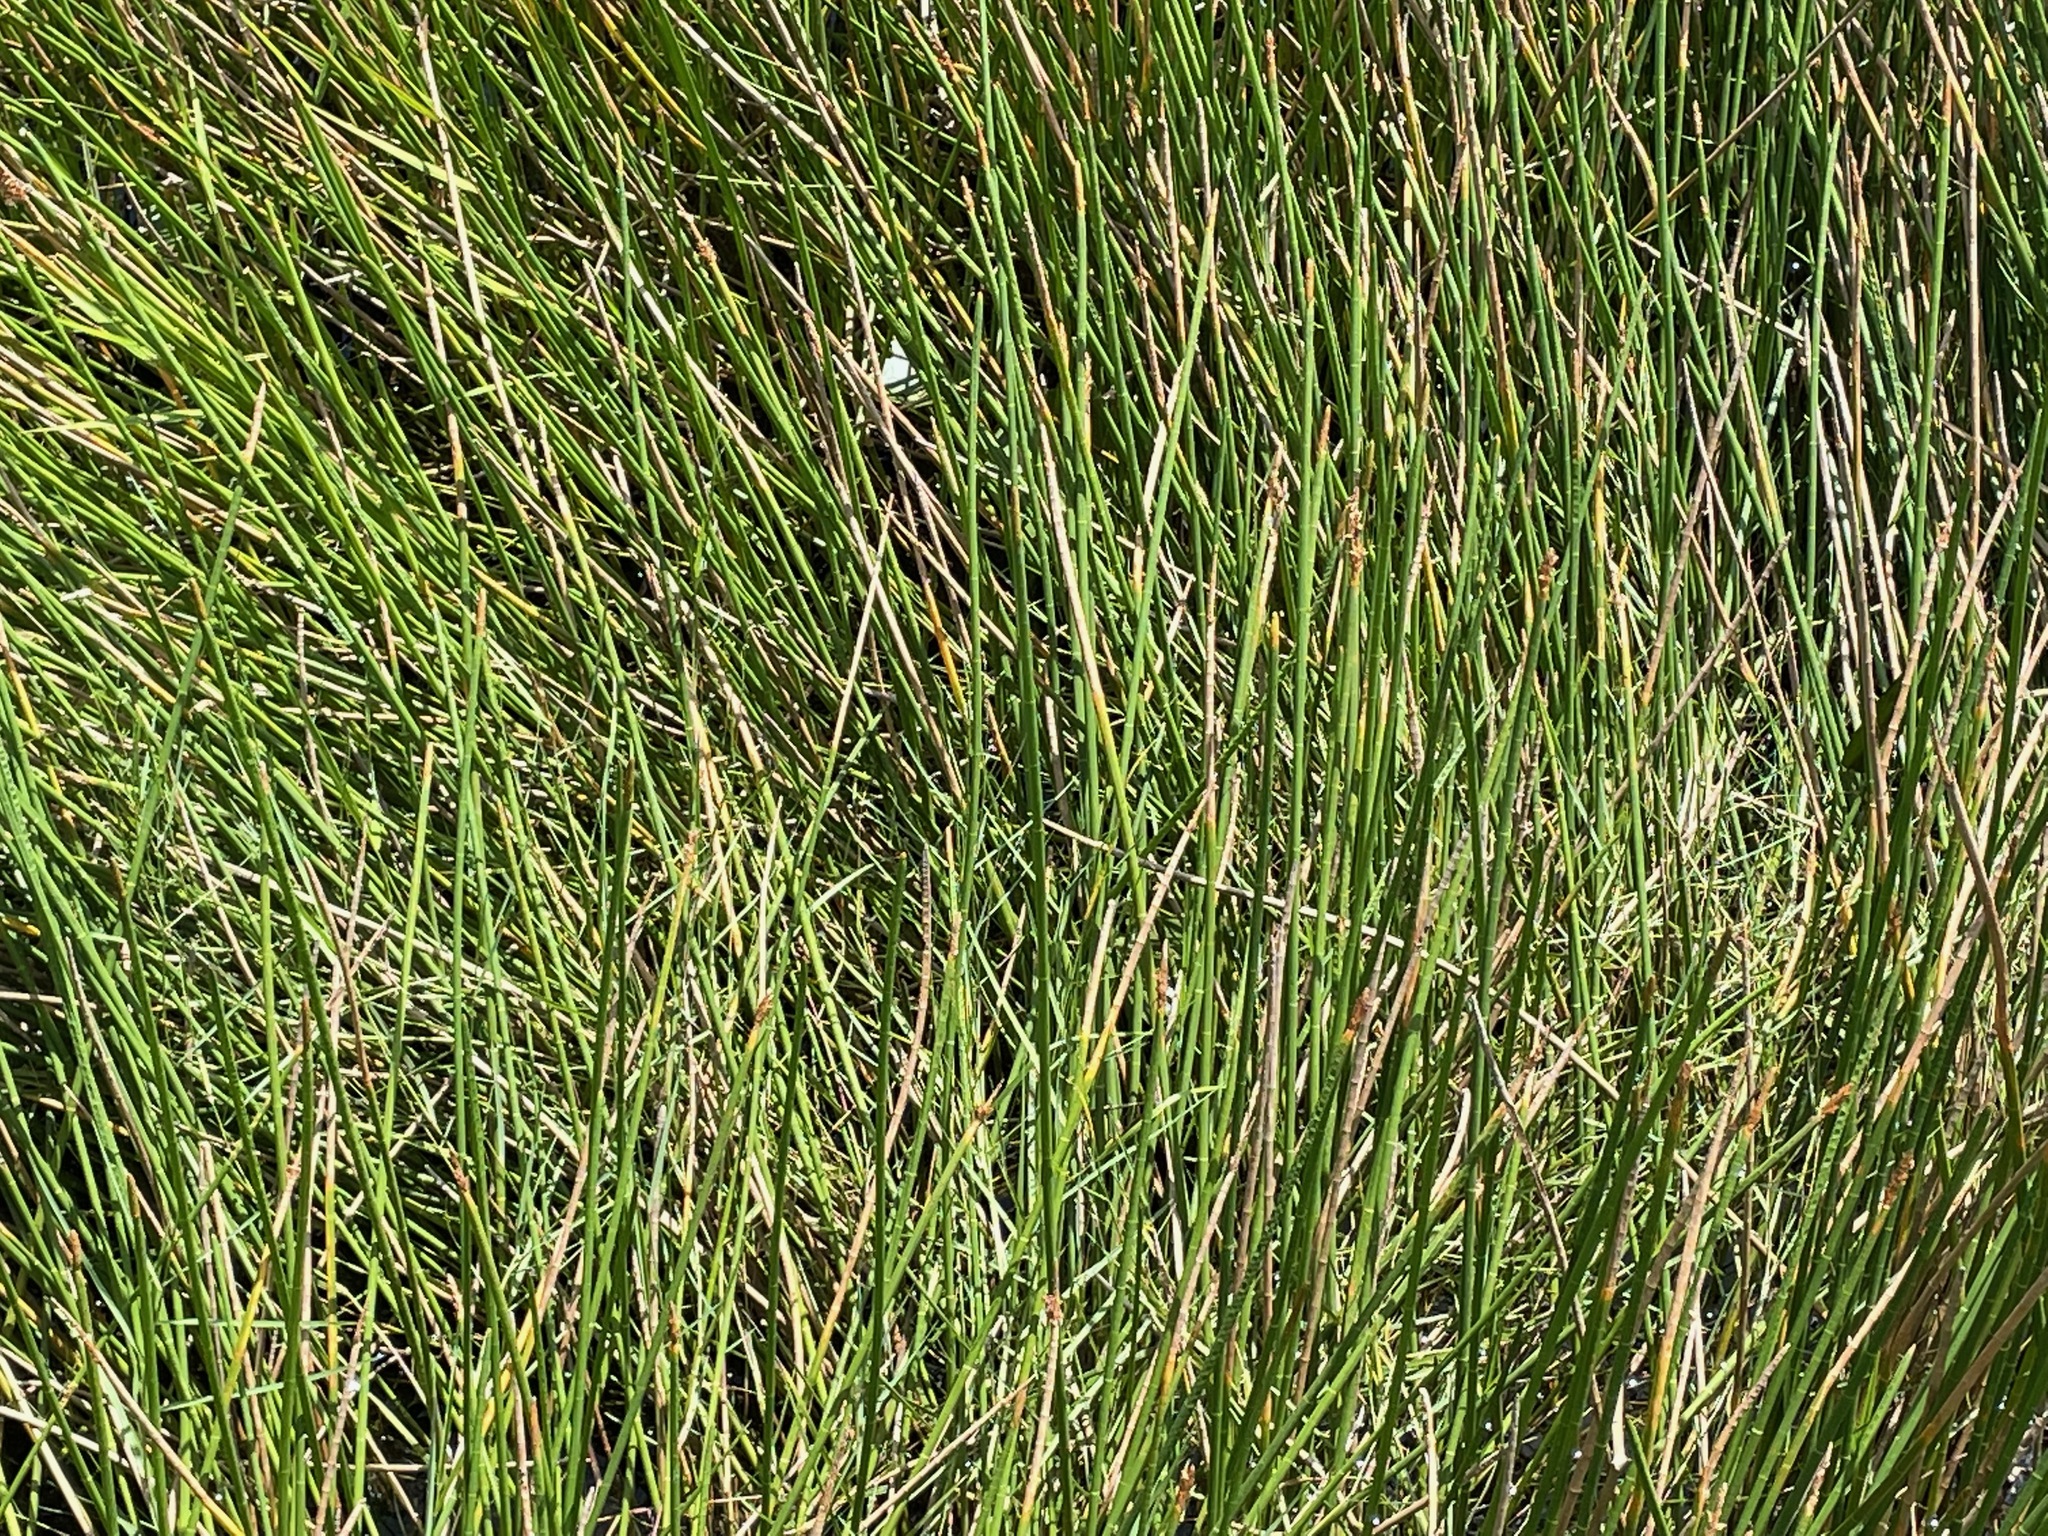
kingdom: Plantae
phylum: Tracheophyta
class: Liliopsida
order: Poales
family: Cyperaceae
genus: Eleocharis
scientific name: Eleocharis interstincta
